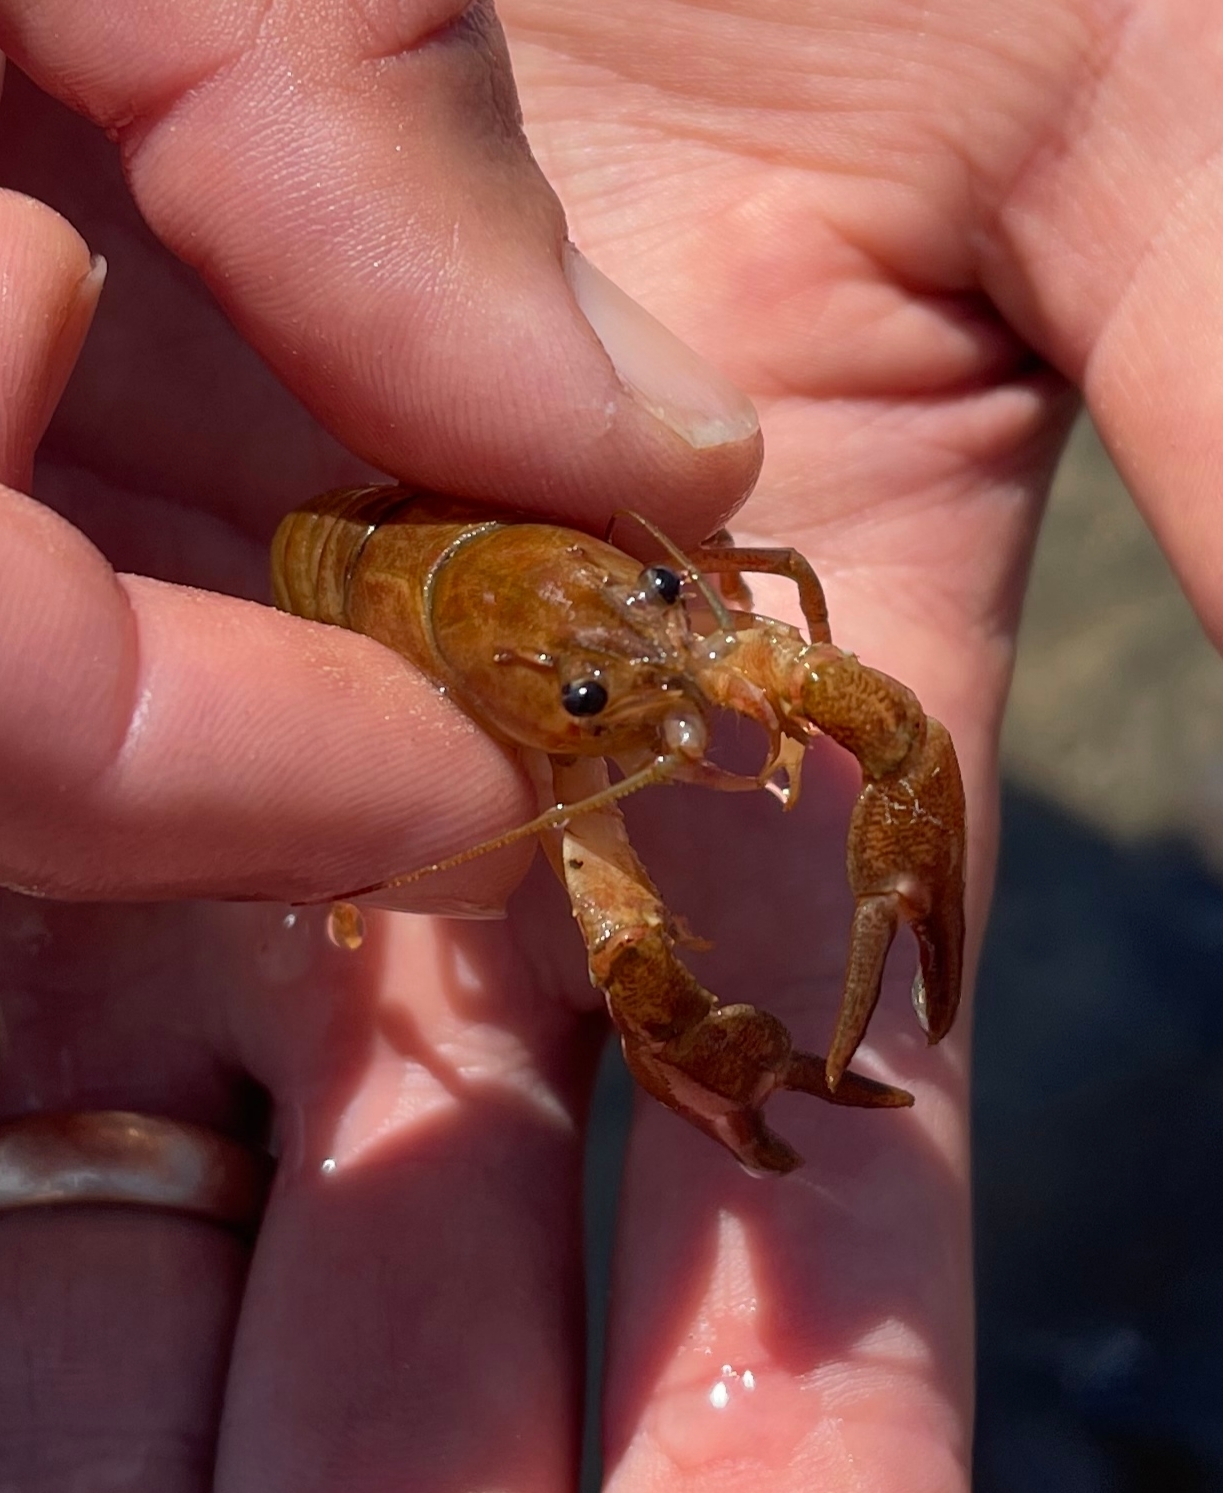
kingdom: Animalia
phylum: Arthropoda
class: Malacostraca
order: Decapoda
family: Astacidae
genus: Pacifastacus
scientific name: Pacifastacus leniusculus
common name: Signal crayfish
